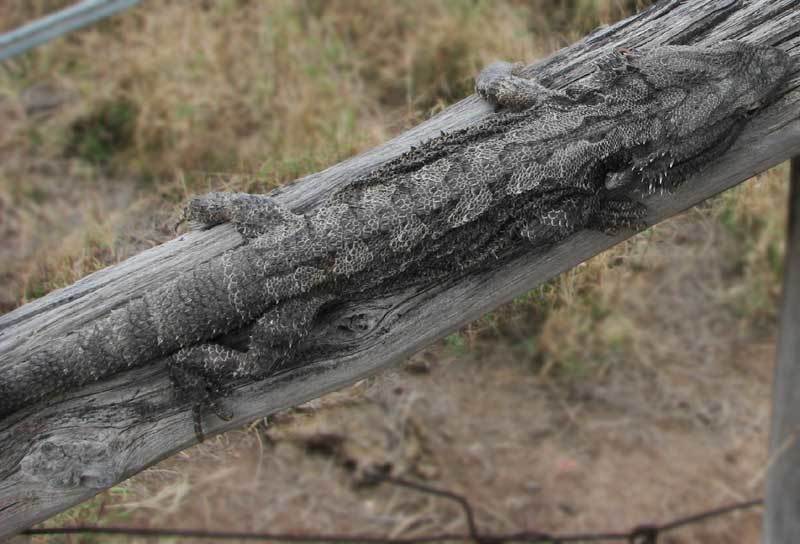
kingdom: Animalia
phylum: Chordata
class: Squamata
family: Agamidae
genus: Pogona
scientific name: Pogona barbata
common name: Bearded dragon
